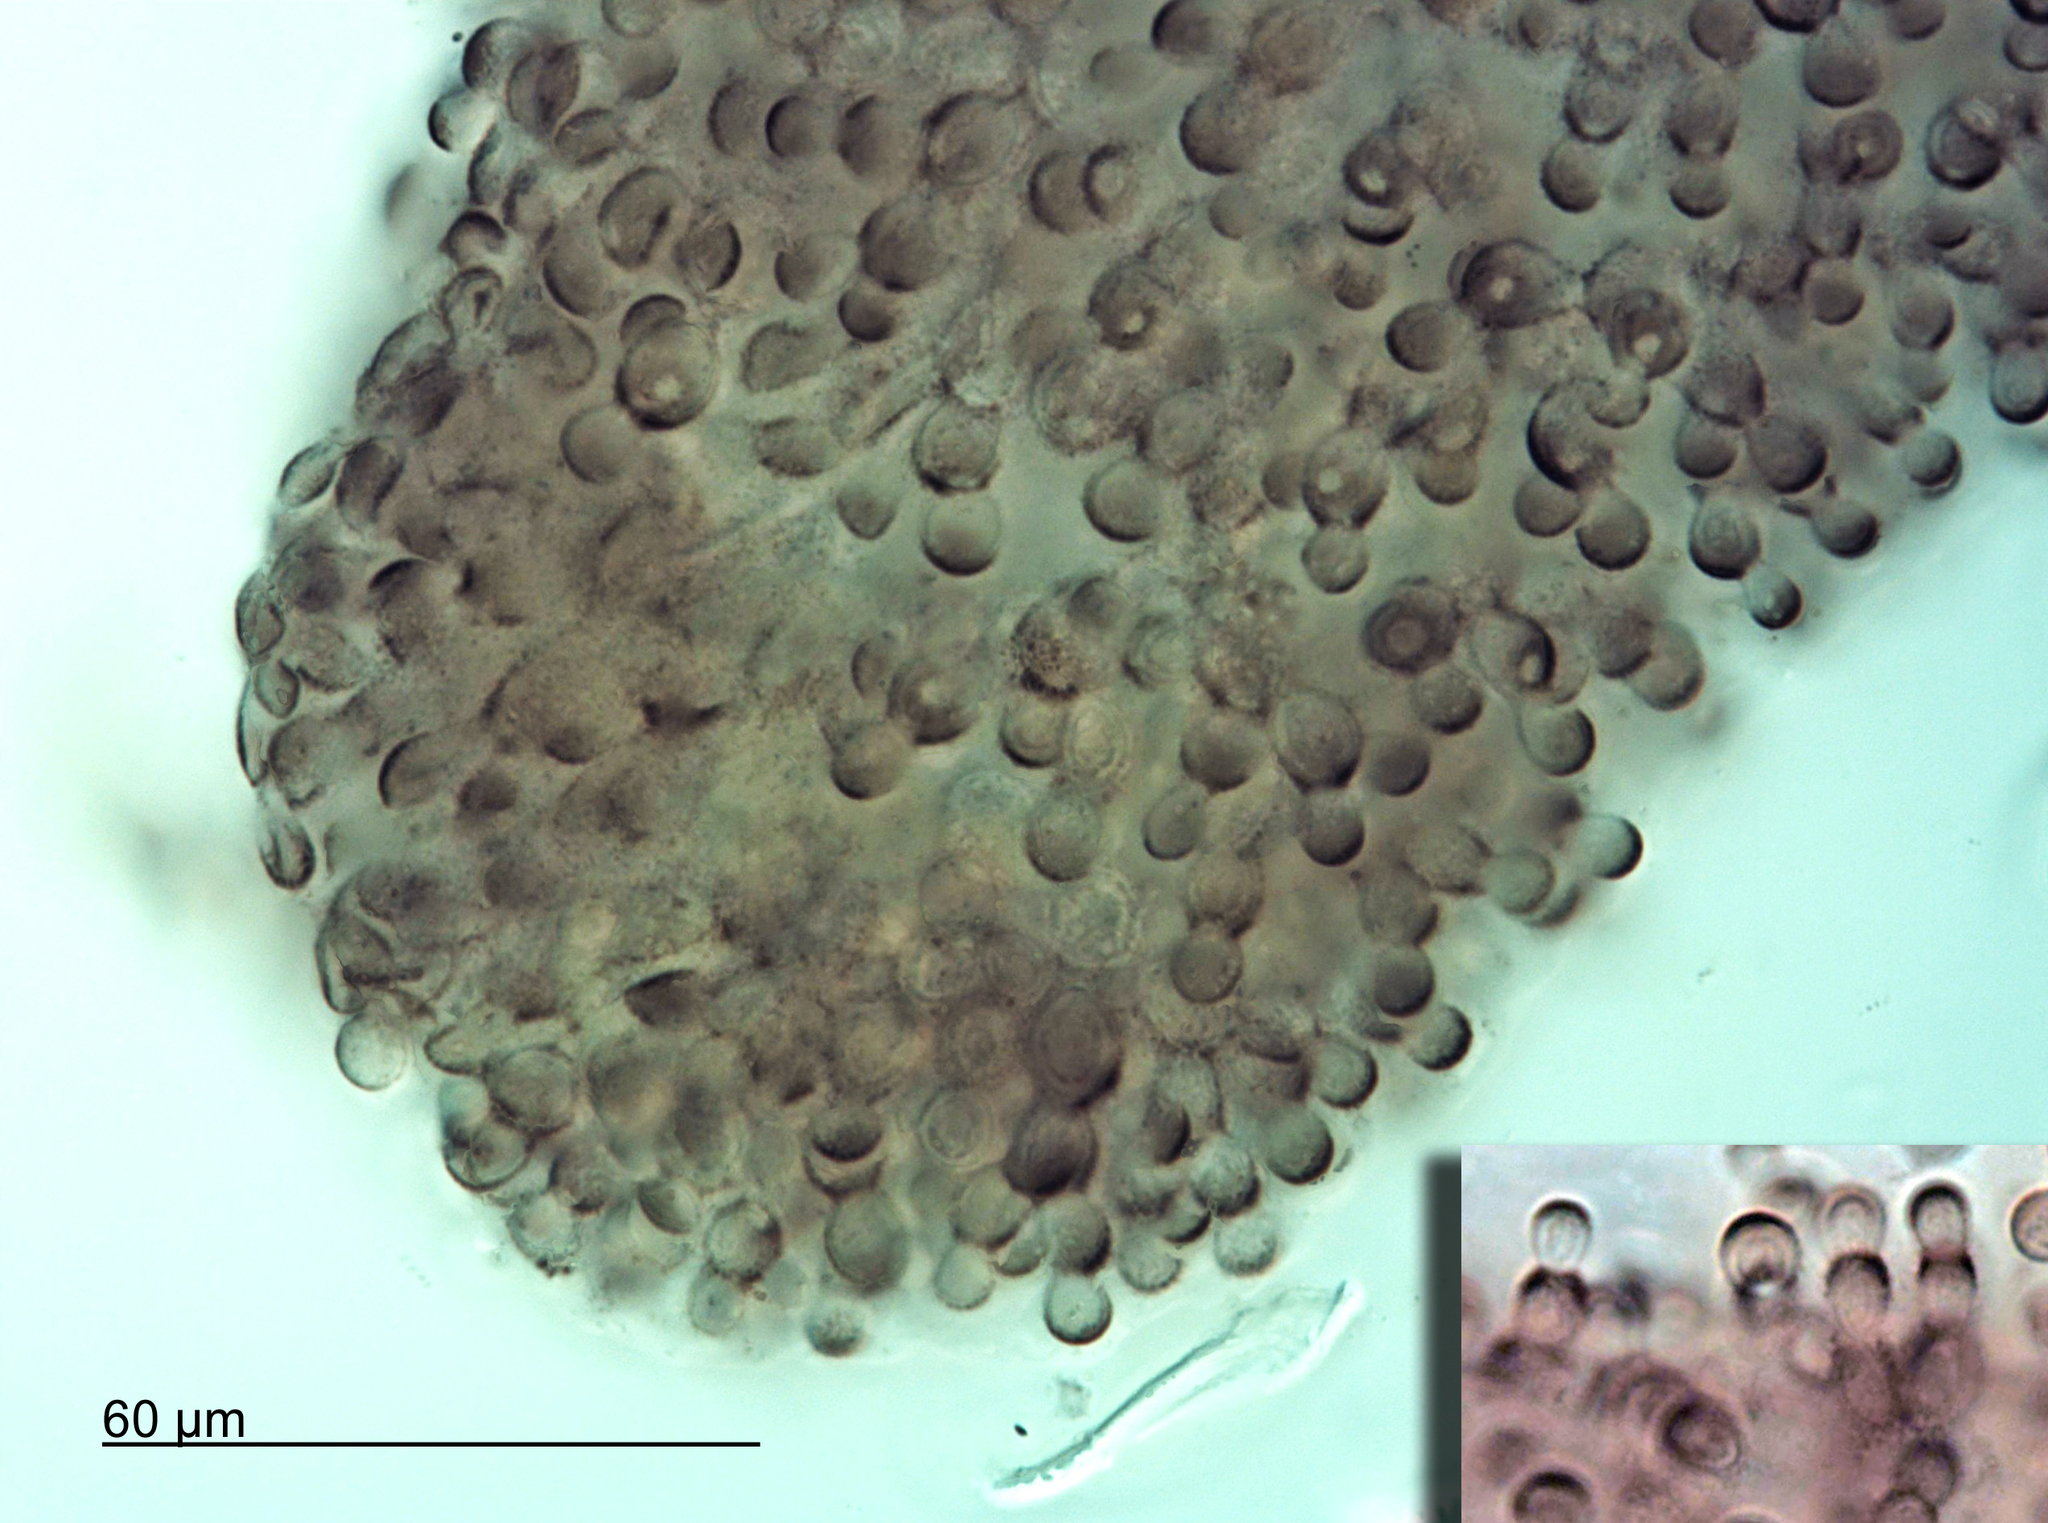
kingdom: Fungi
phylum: Ascomycota
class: Dothideomycetes
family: Seuratiaceae
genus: Atichia
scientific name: Atichia glomerulosa
